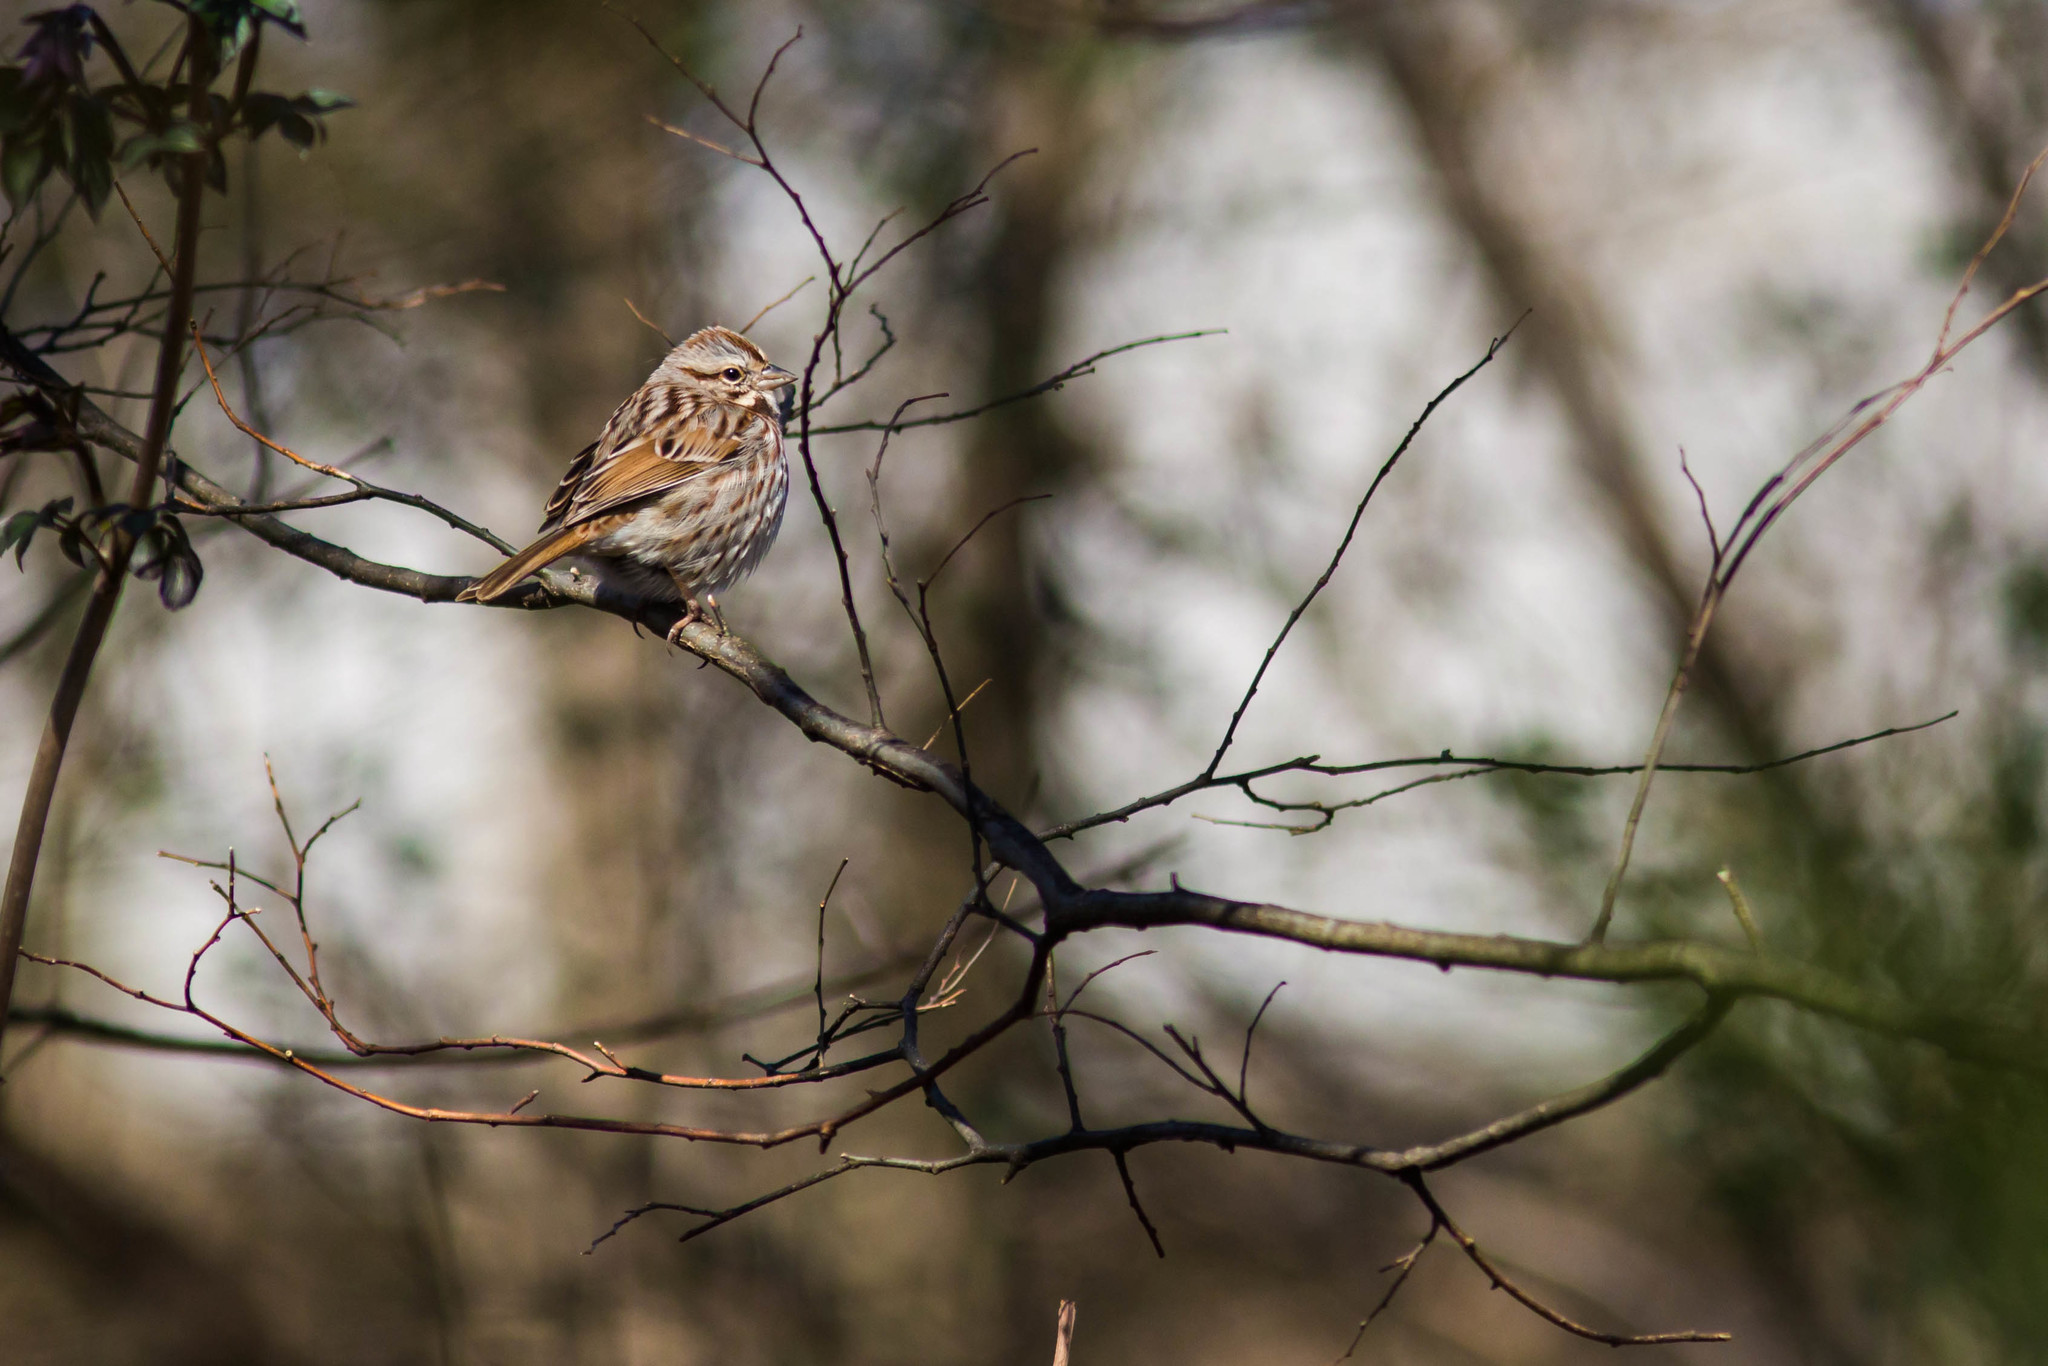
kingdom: Animalia
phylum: Chordata
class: Aves
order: Passeriformes
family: Passerellidae
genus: Melospiza
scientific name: Melospiza melodia
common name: Song sparrow
